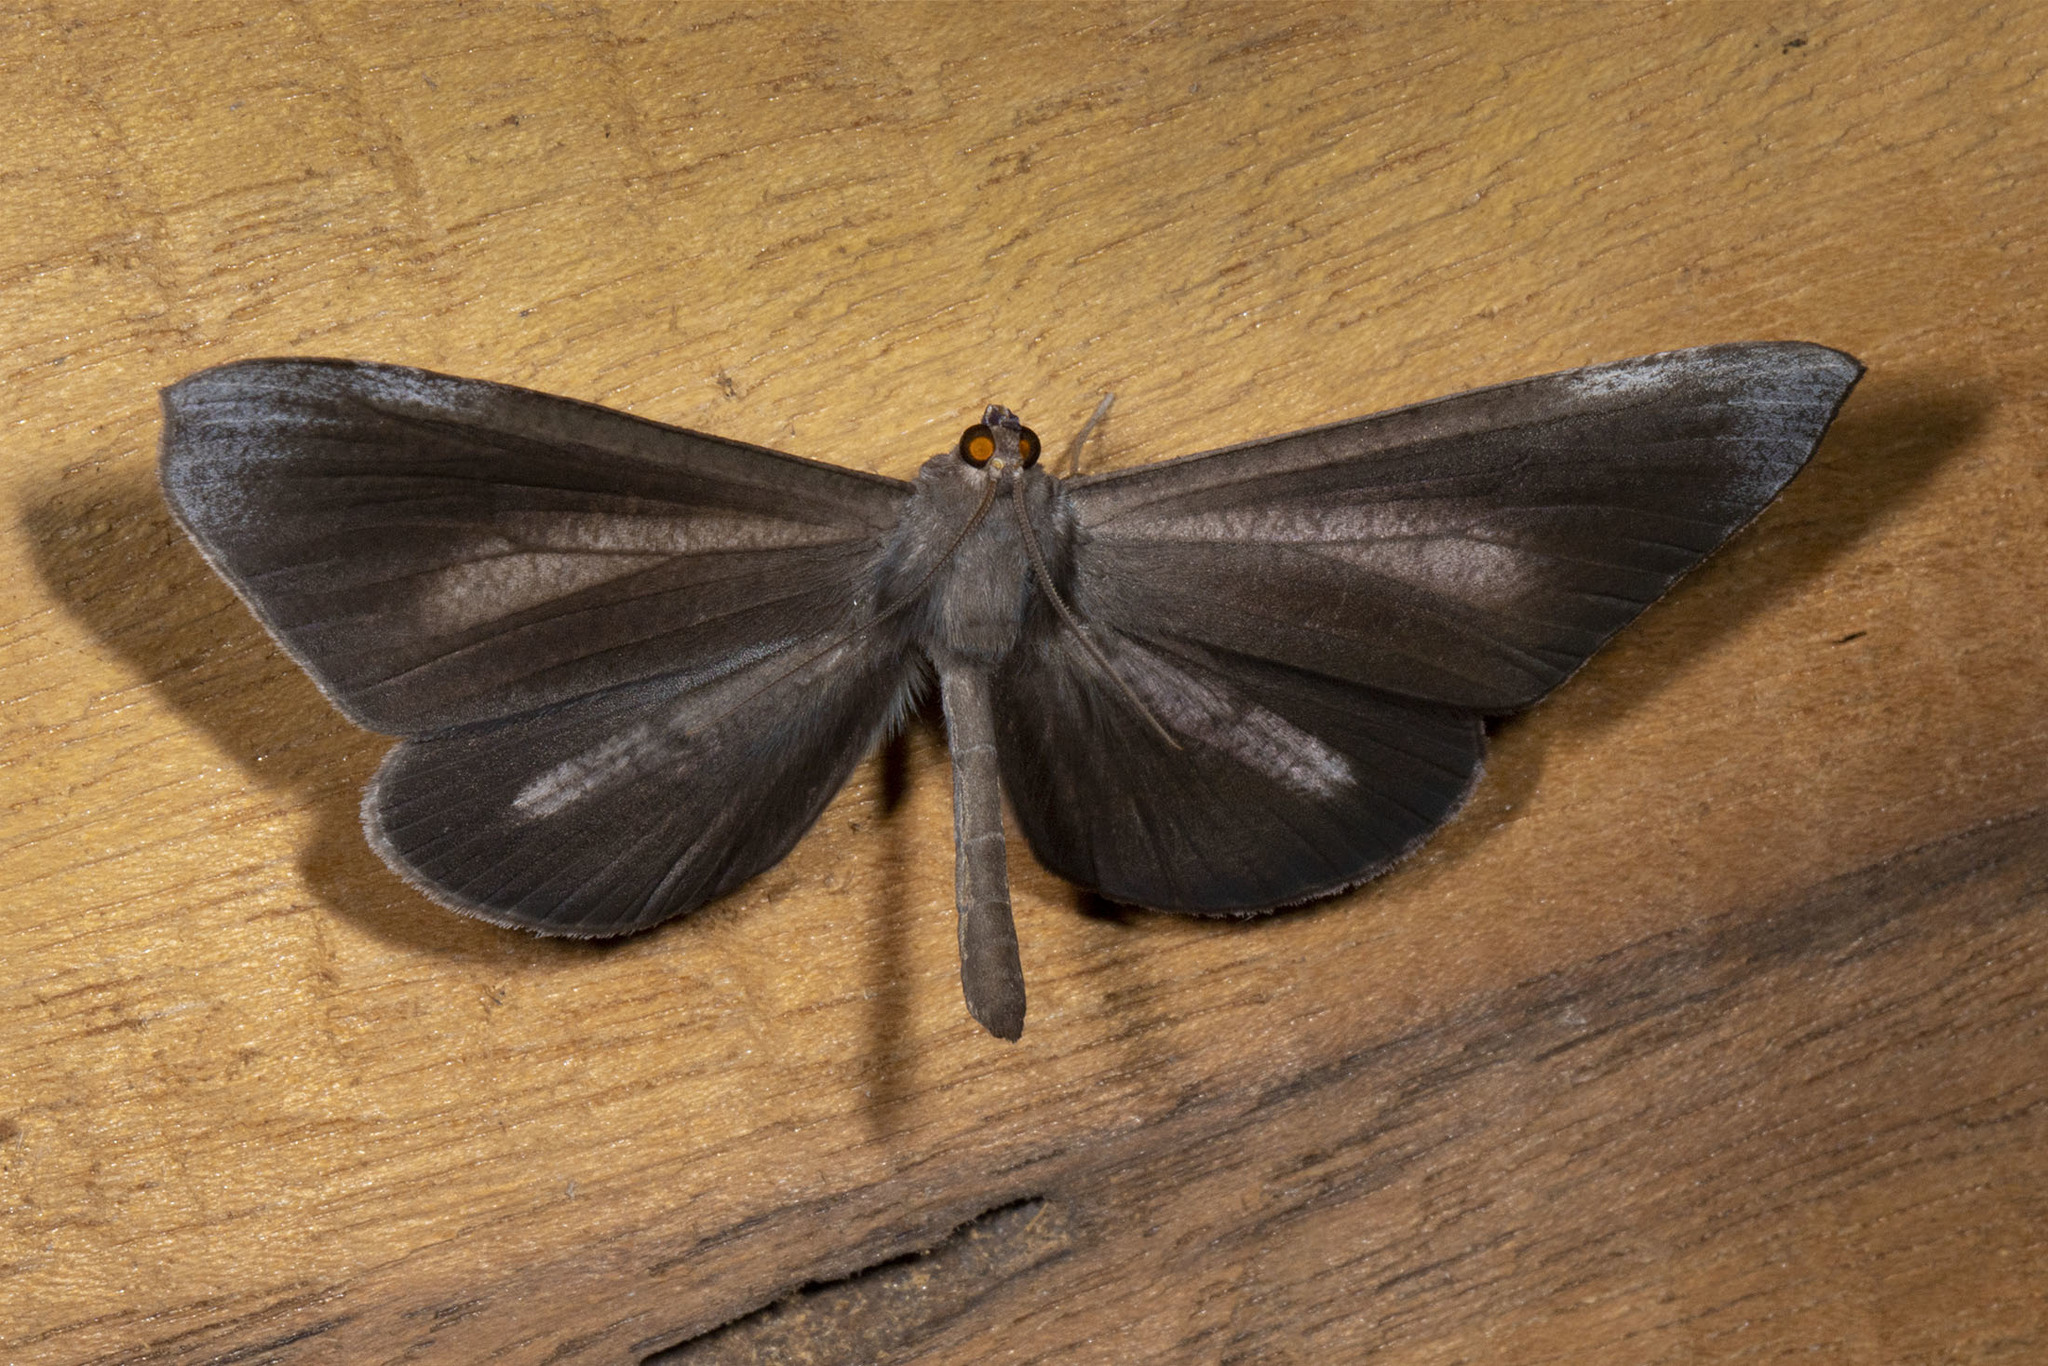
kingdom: Animalia
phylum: Arthropoda
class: Insecta
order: Lepidoptera
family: Hedylidae
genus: Macrosoma
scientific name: Macrosoma lucivittata
